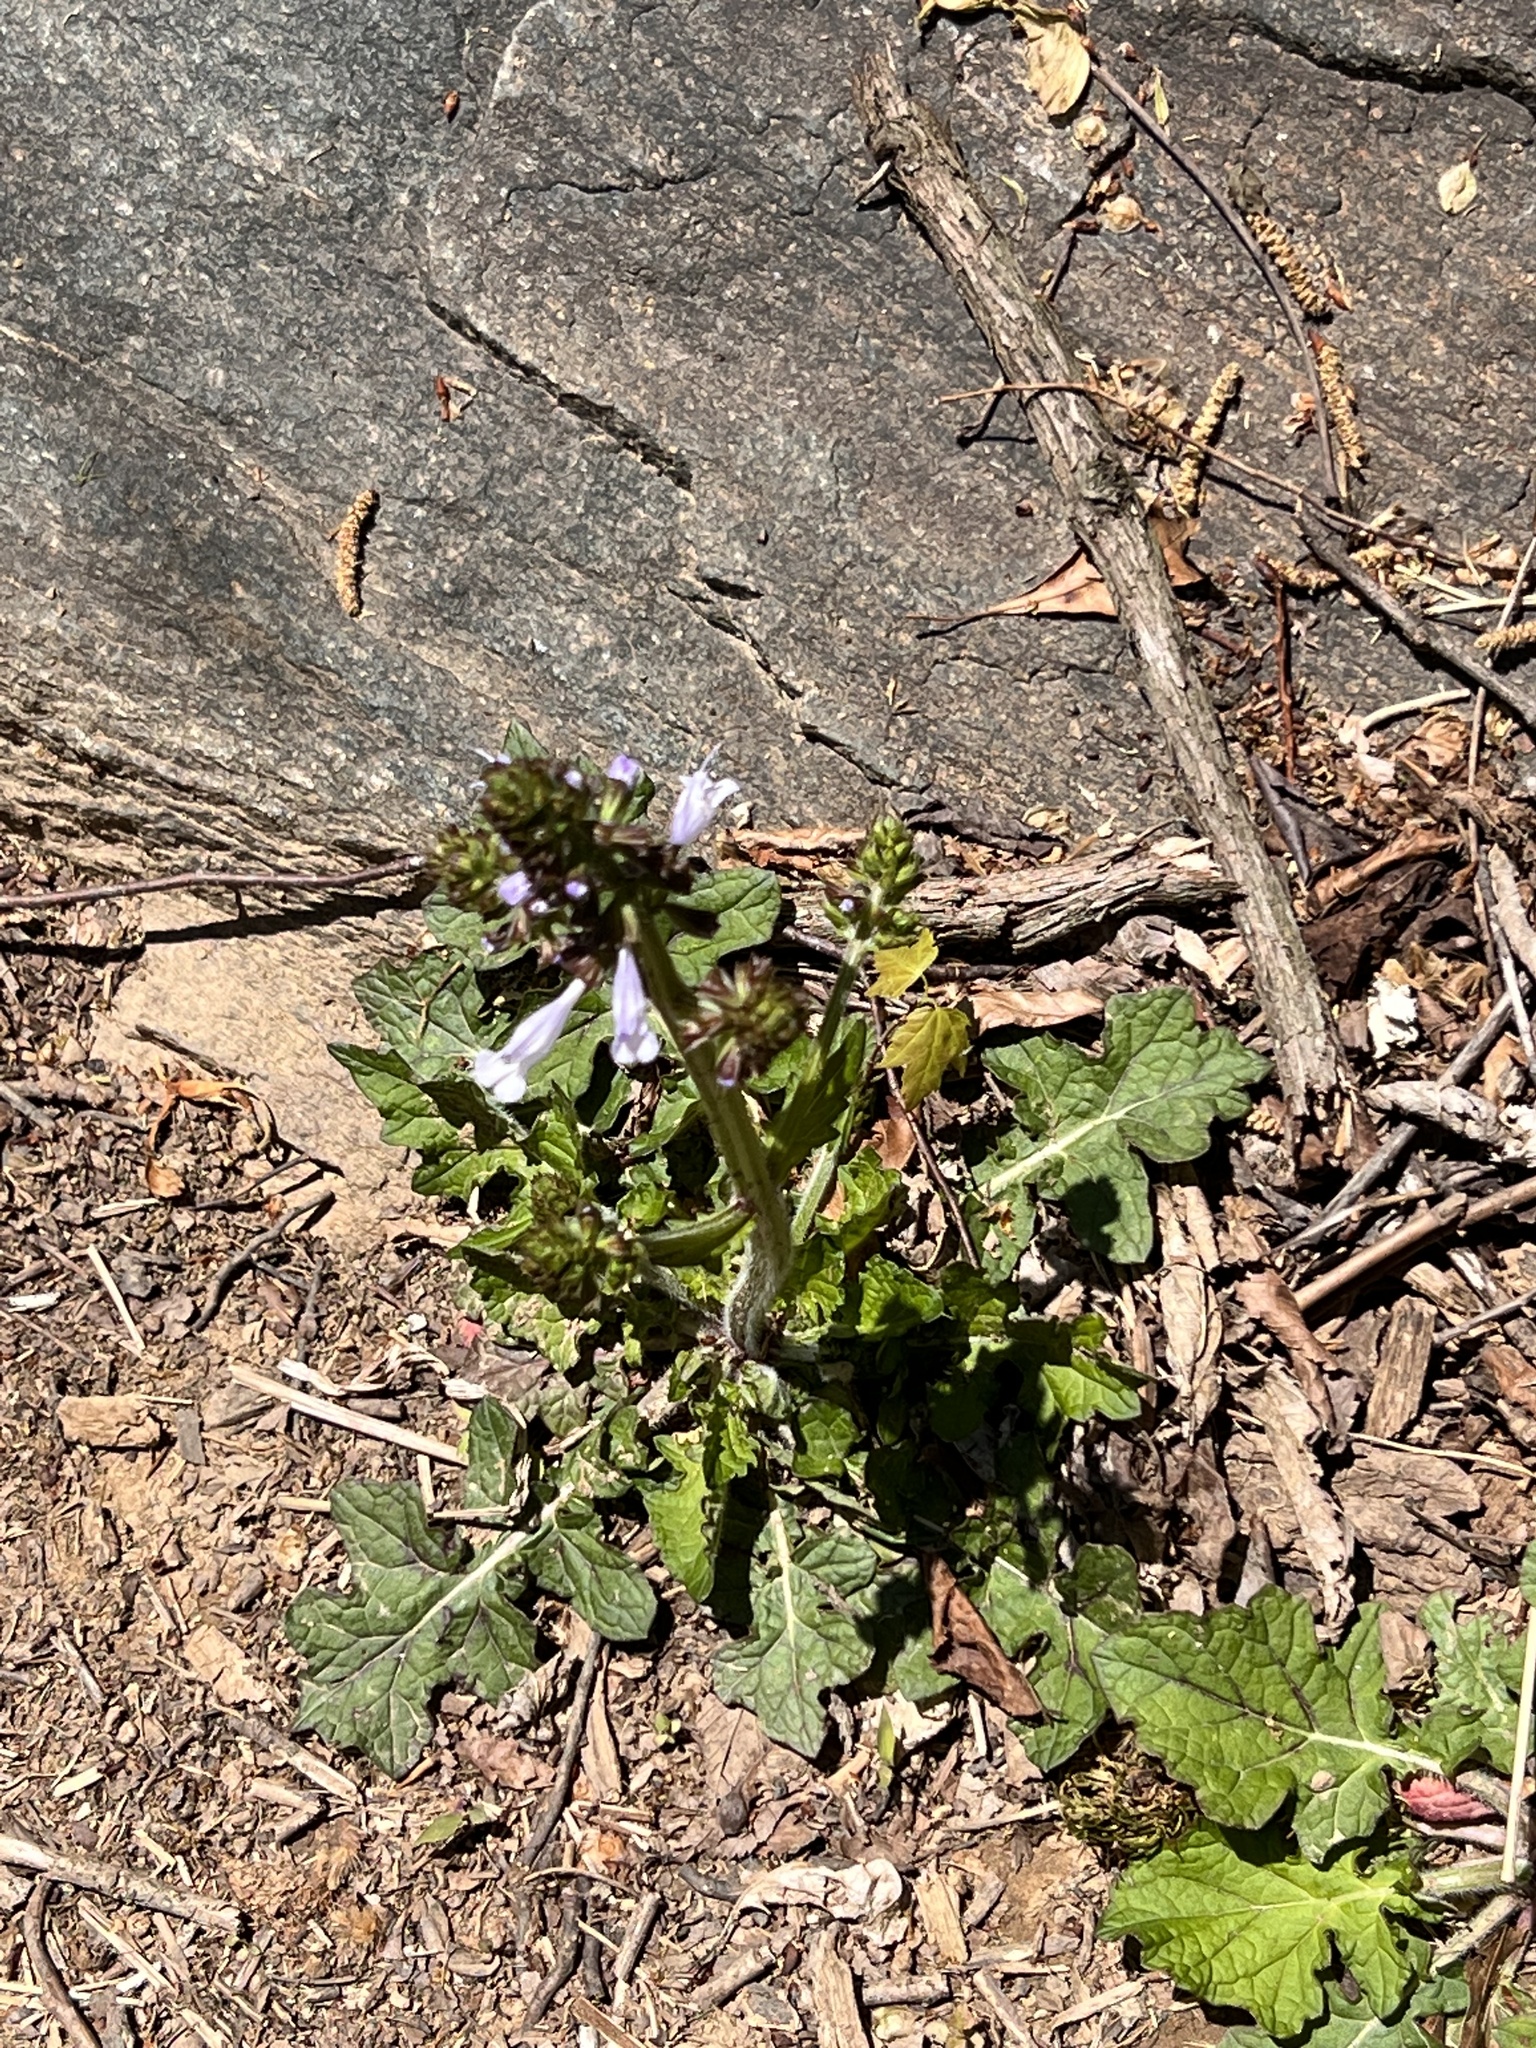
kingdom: Plantae
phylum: Tracheophyta
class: Magnoliopsida
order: Lamiales
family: Lamiaceae
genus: Salvia
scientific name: Salvia lyrata
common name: Cancerweed
